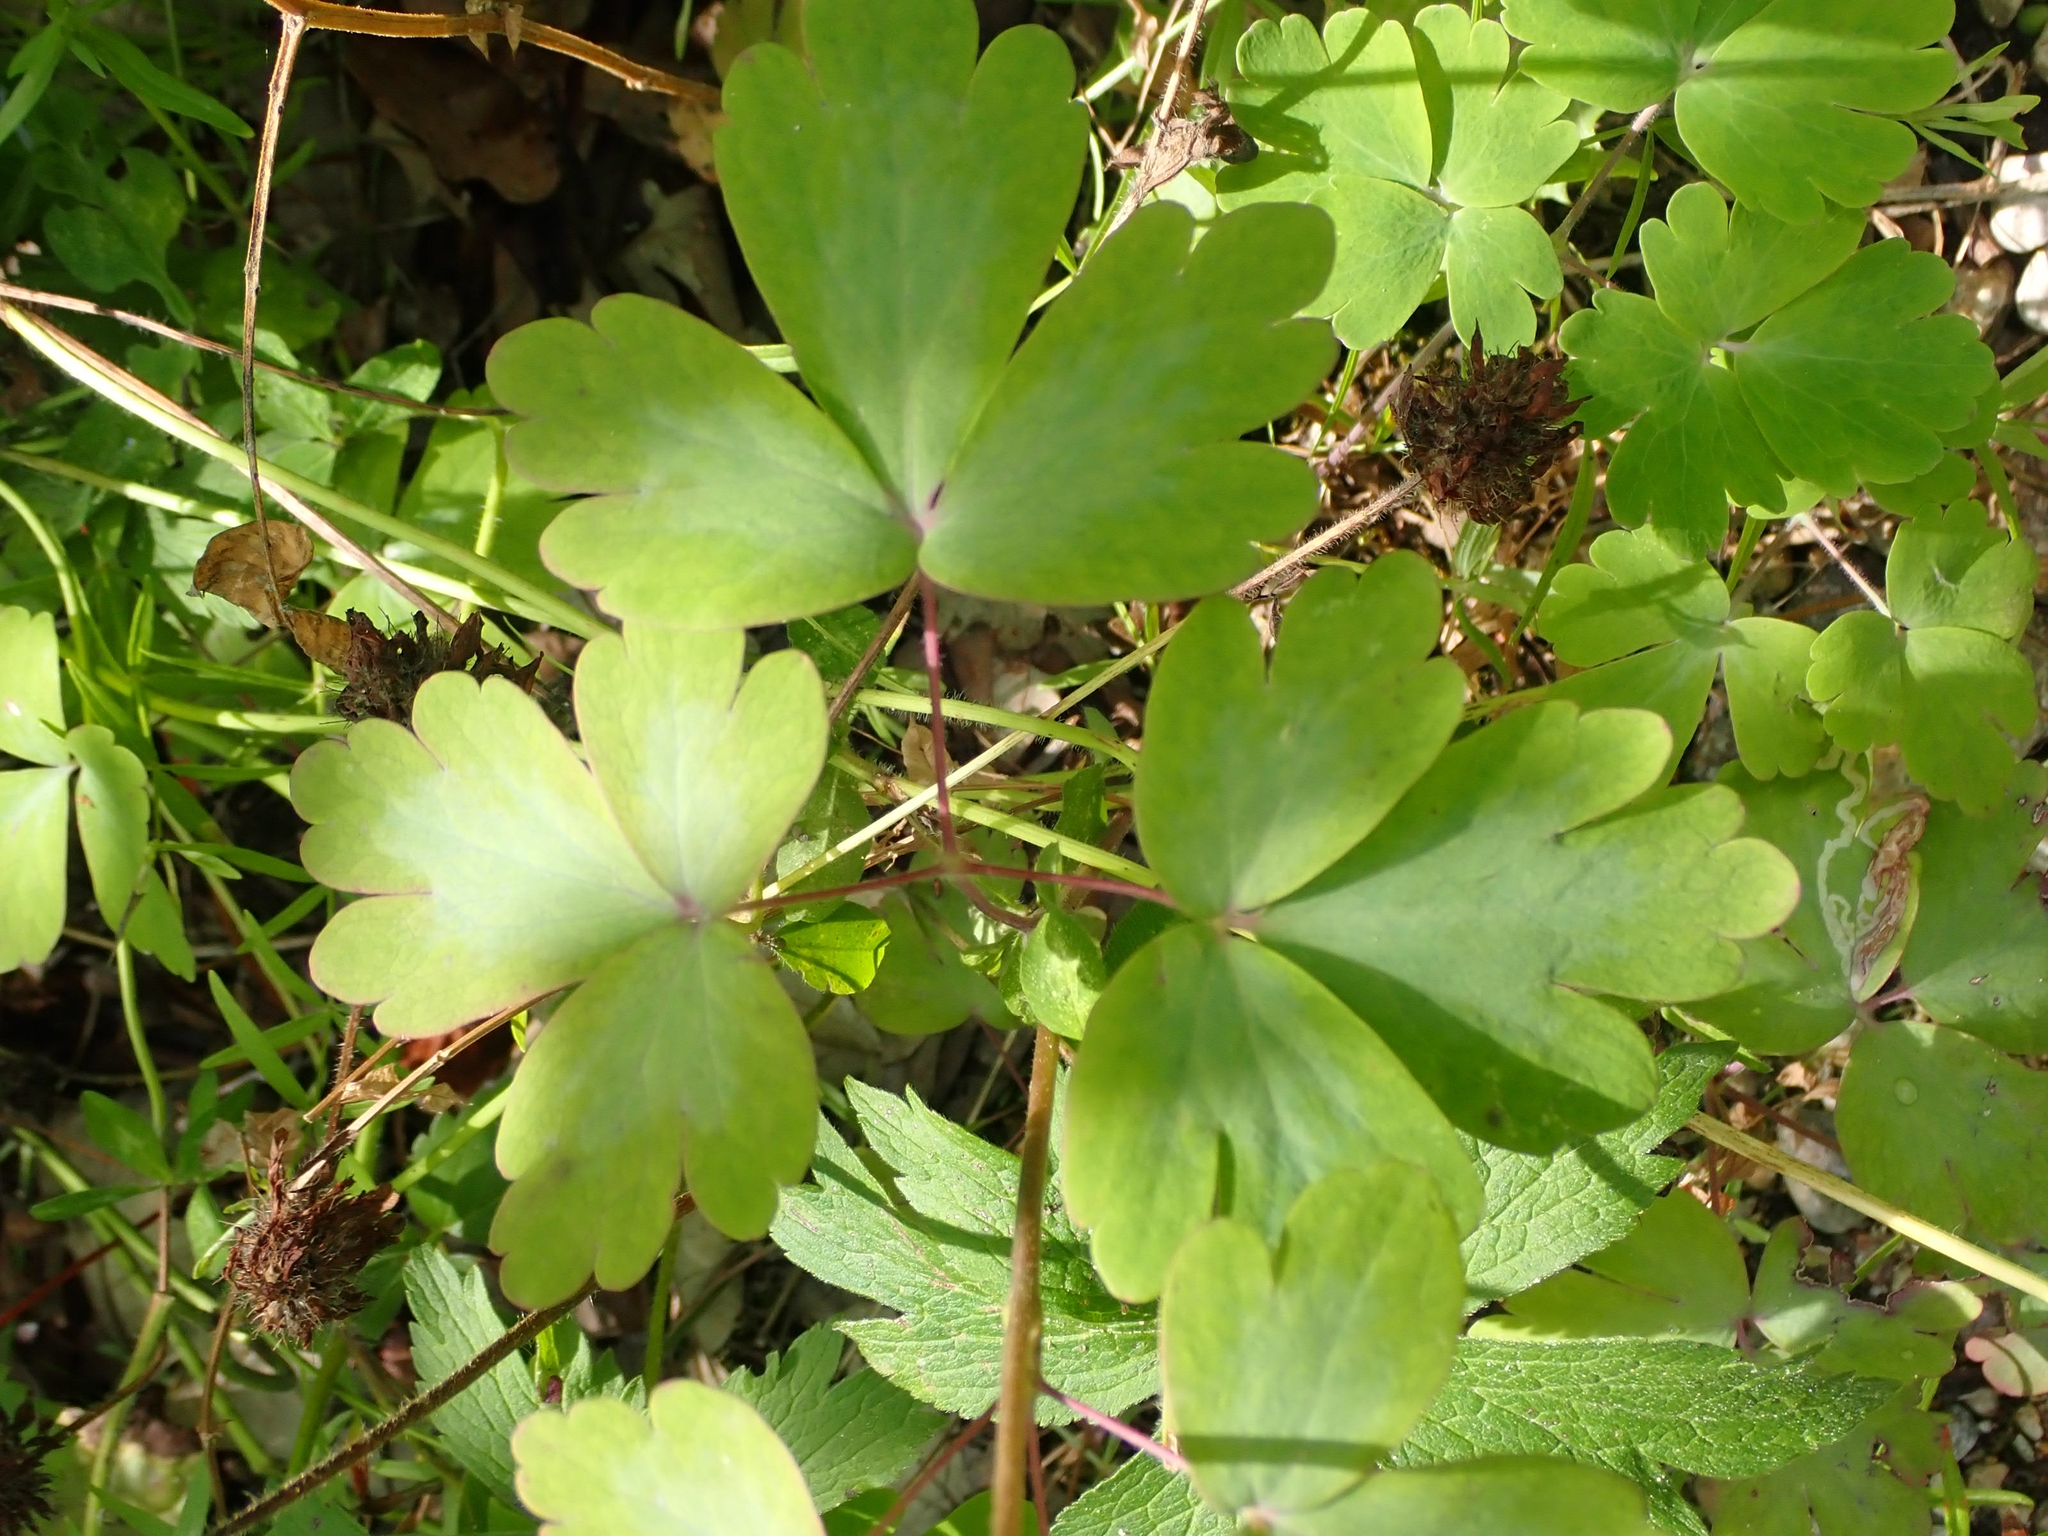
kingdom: Plantae
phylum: Tracheophyta
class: Magnoliopsida
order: Ranunculales
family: Ranunculaceae
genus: Aquilegia
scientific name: Aquilegia canadensis
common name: American columbine
